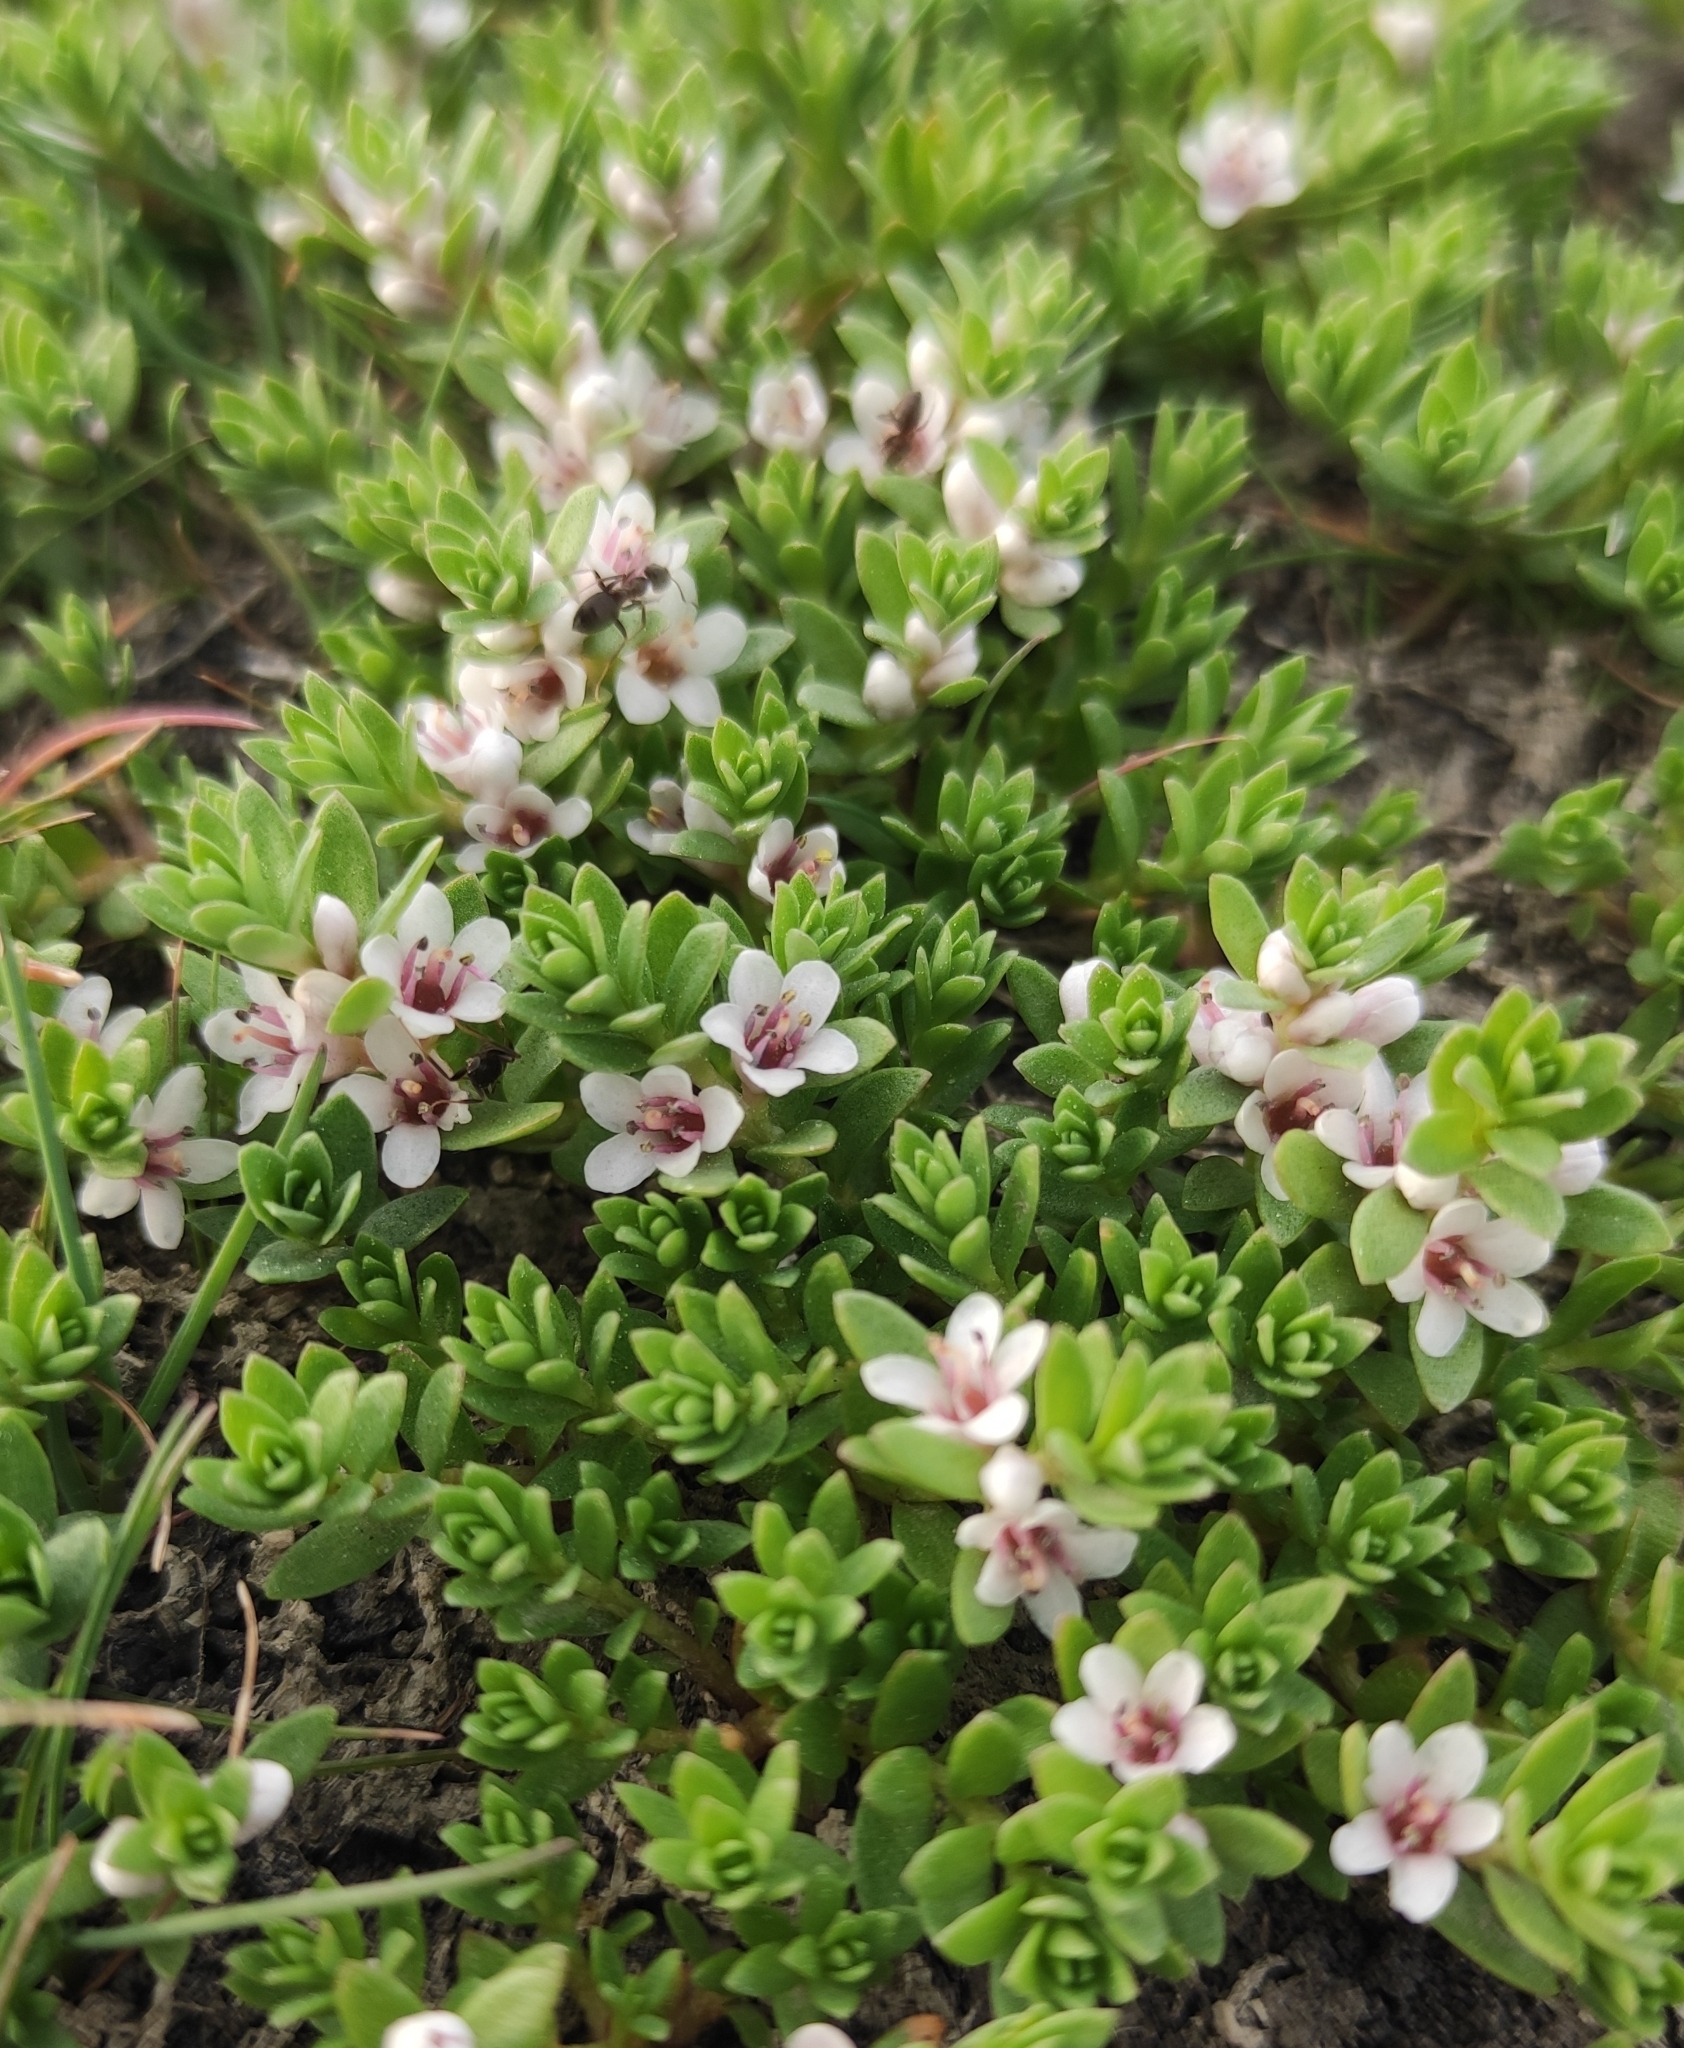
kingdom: Plantae
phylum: Tracheophyta
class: Magnoliopsida
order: Ericales
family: Primulaceae
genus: Lysimachia
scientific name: Lysimachia maritima
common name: Sea milkwort
